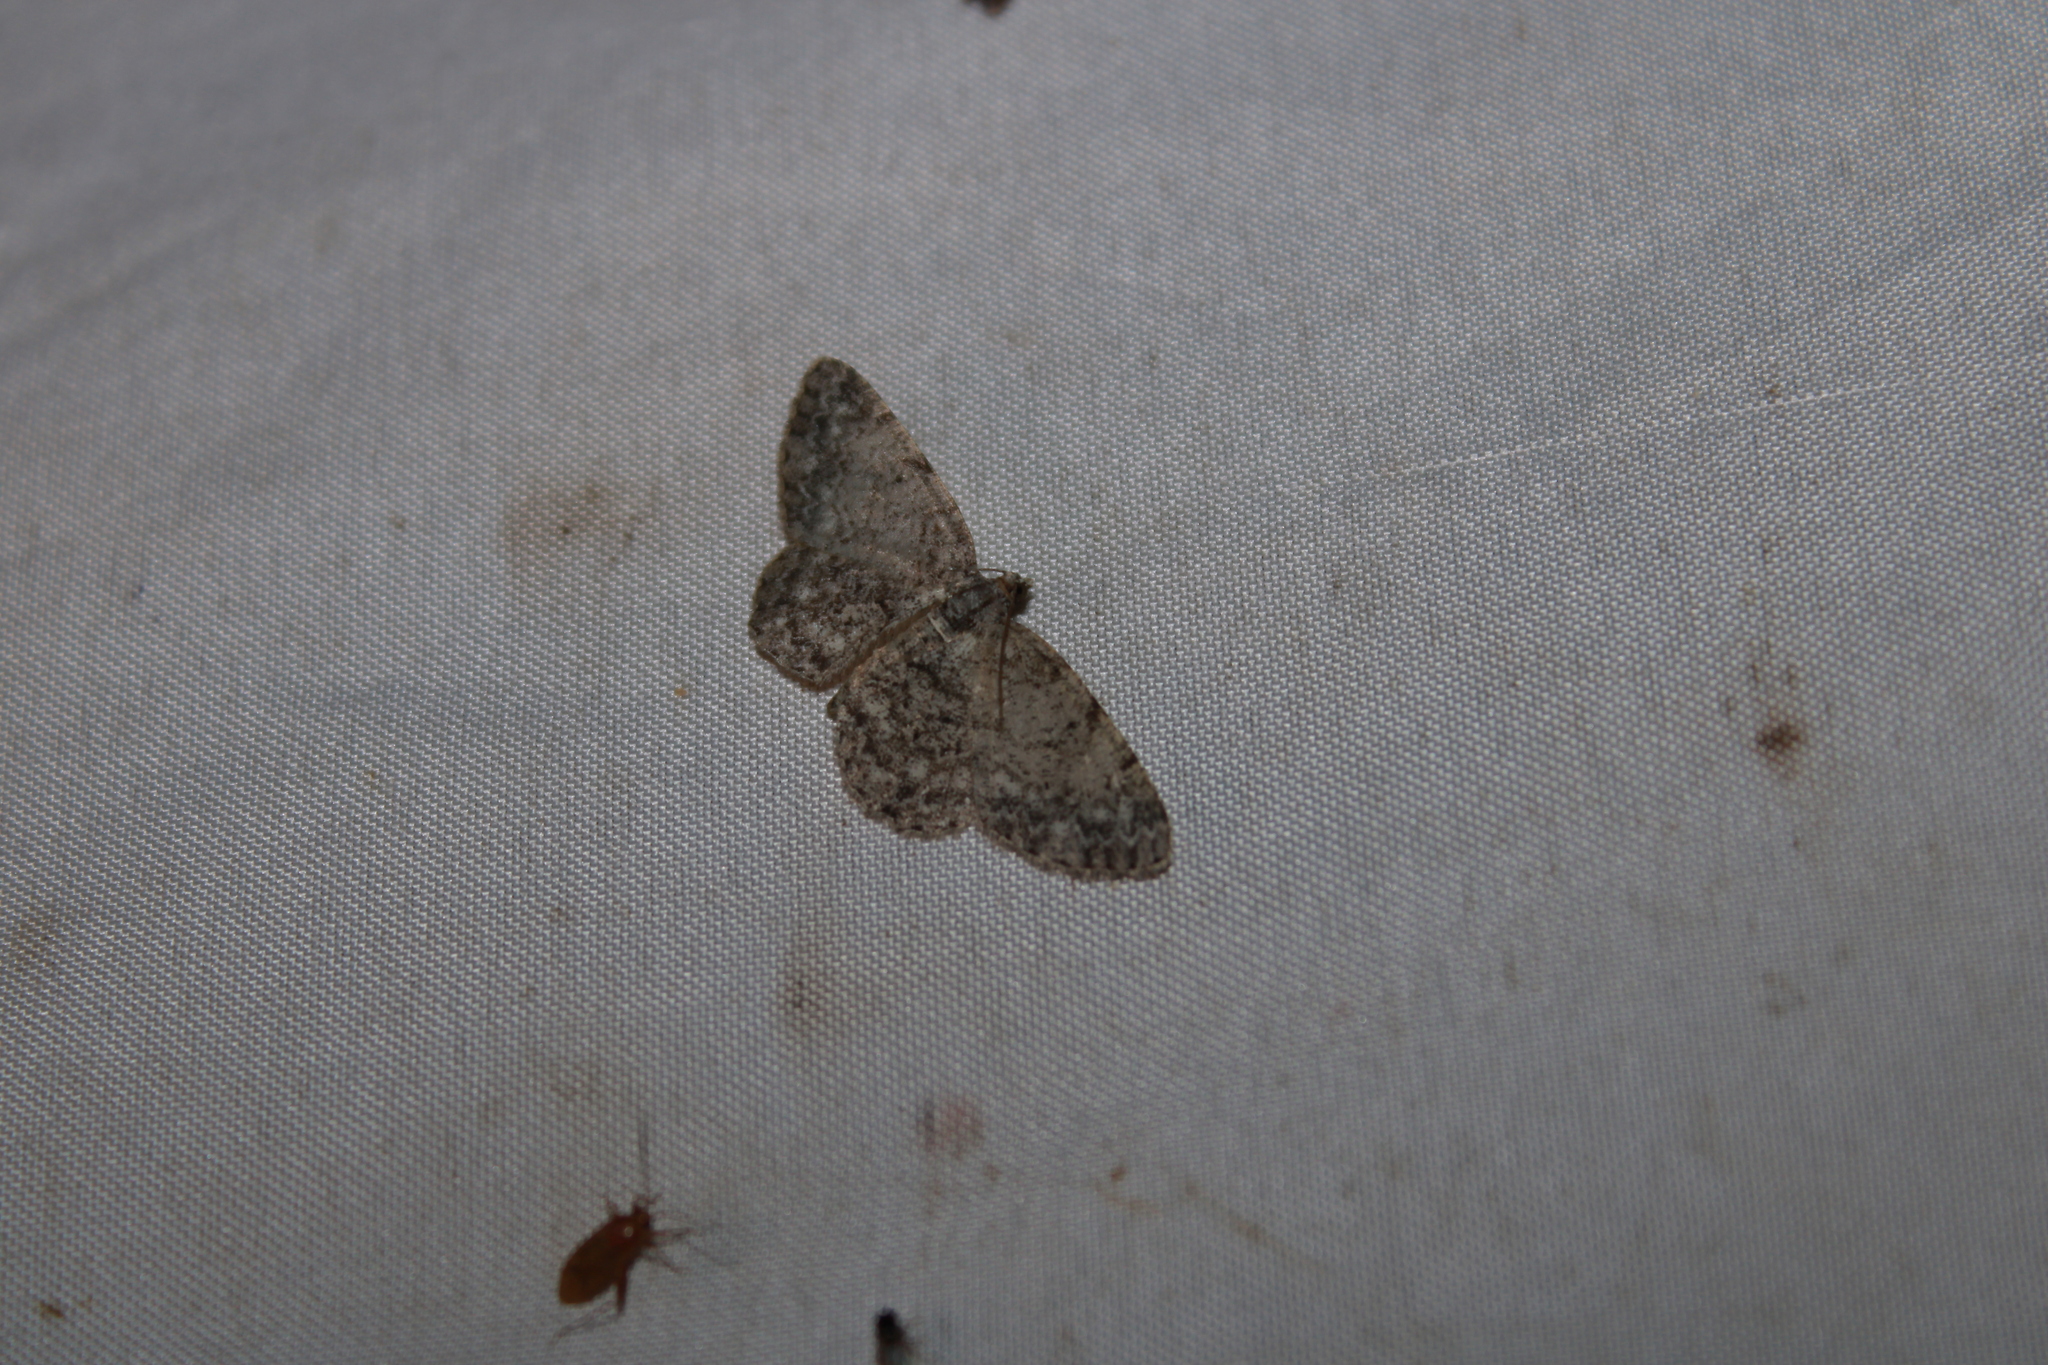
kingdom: Animalia
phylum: Arthropoda
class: Insecta
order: Lepidoptera
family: Geometridae
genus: Protoboarmia
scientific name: Protoboarmia porcelaria
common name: Porcelain gray
